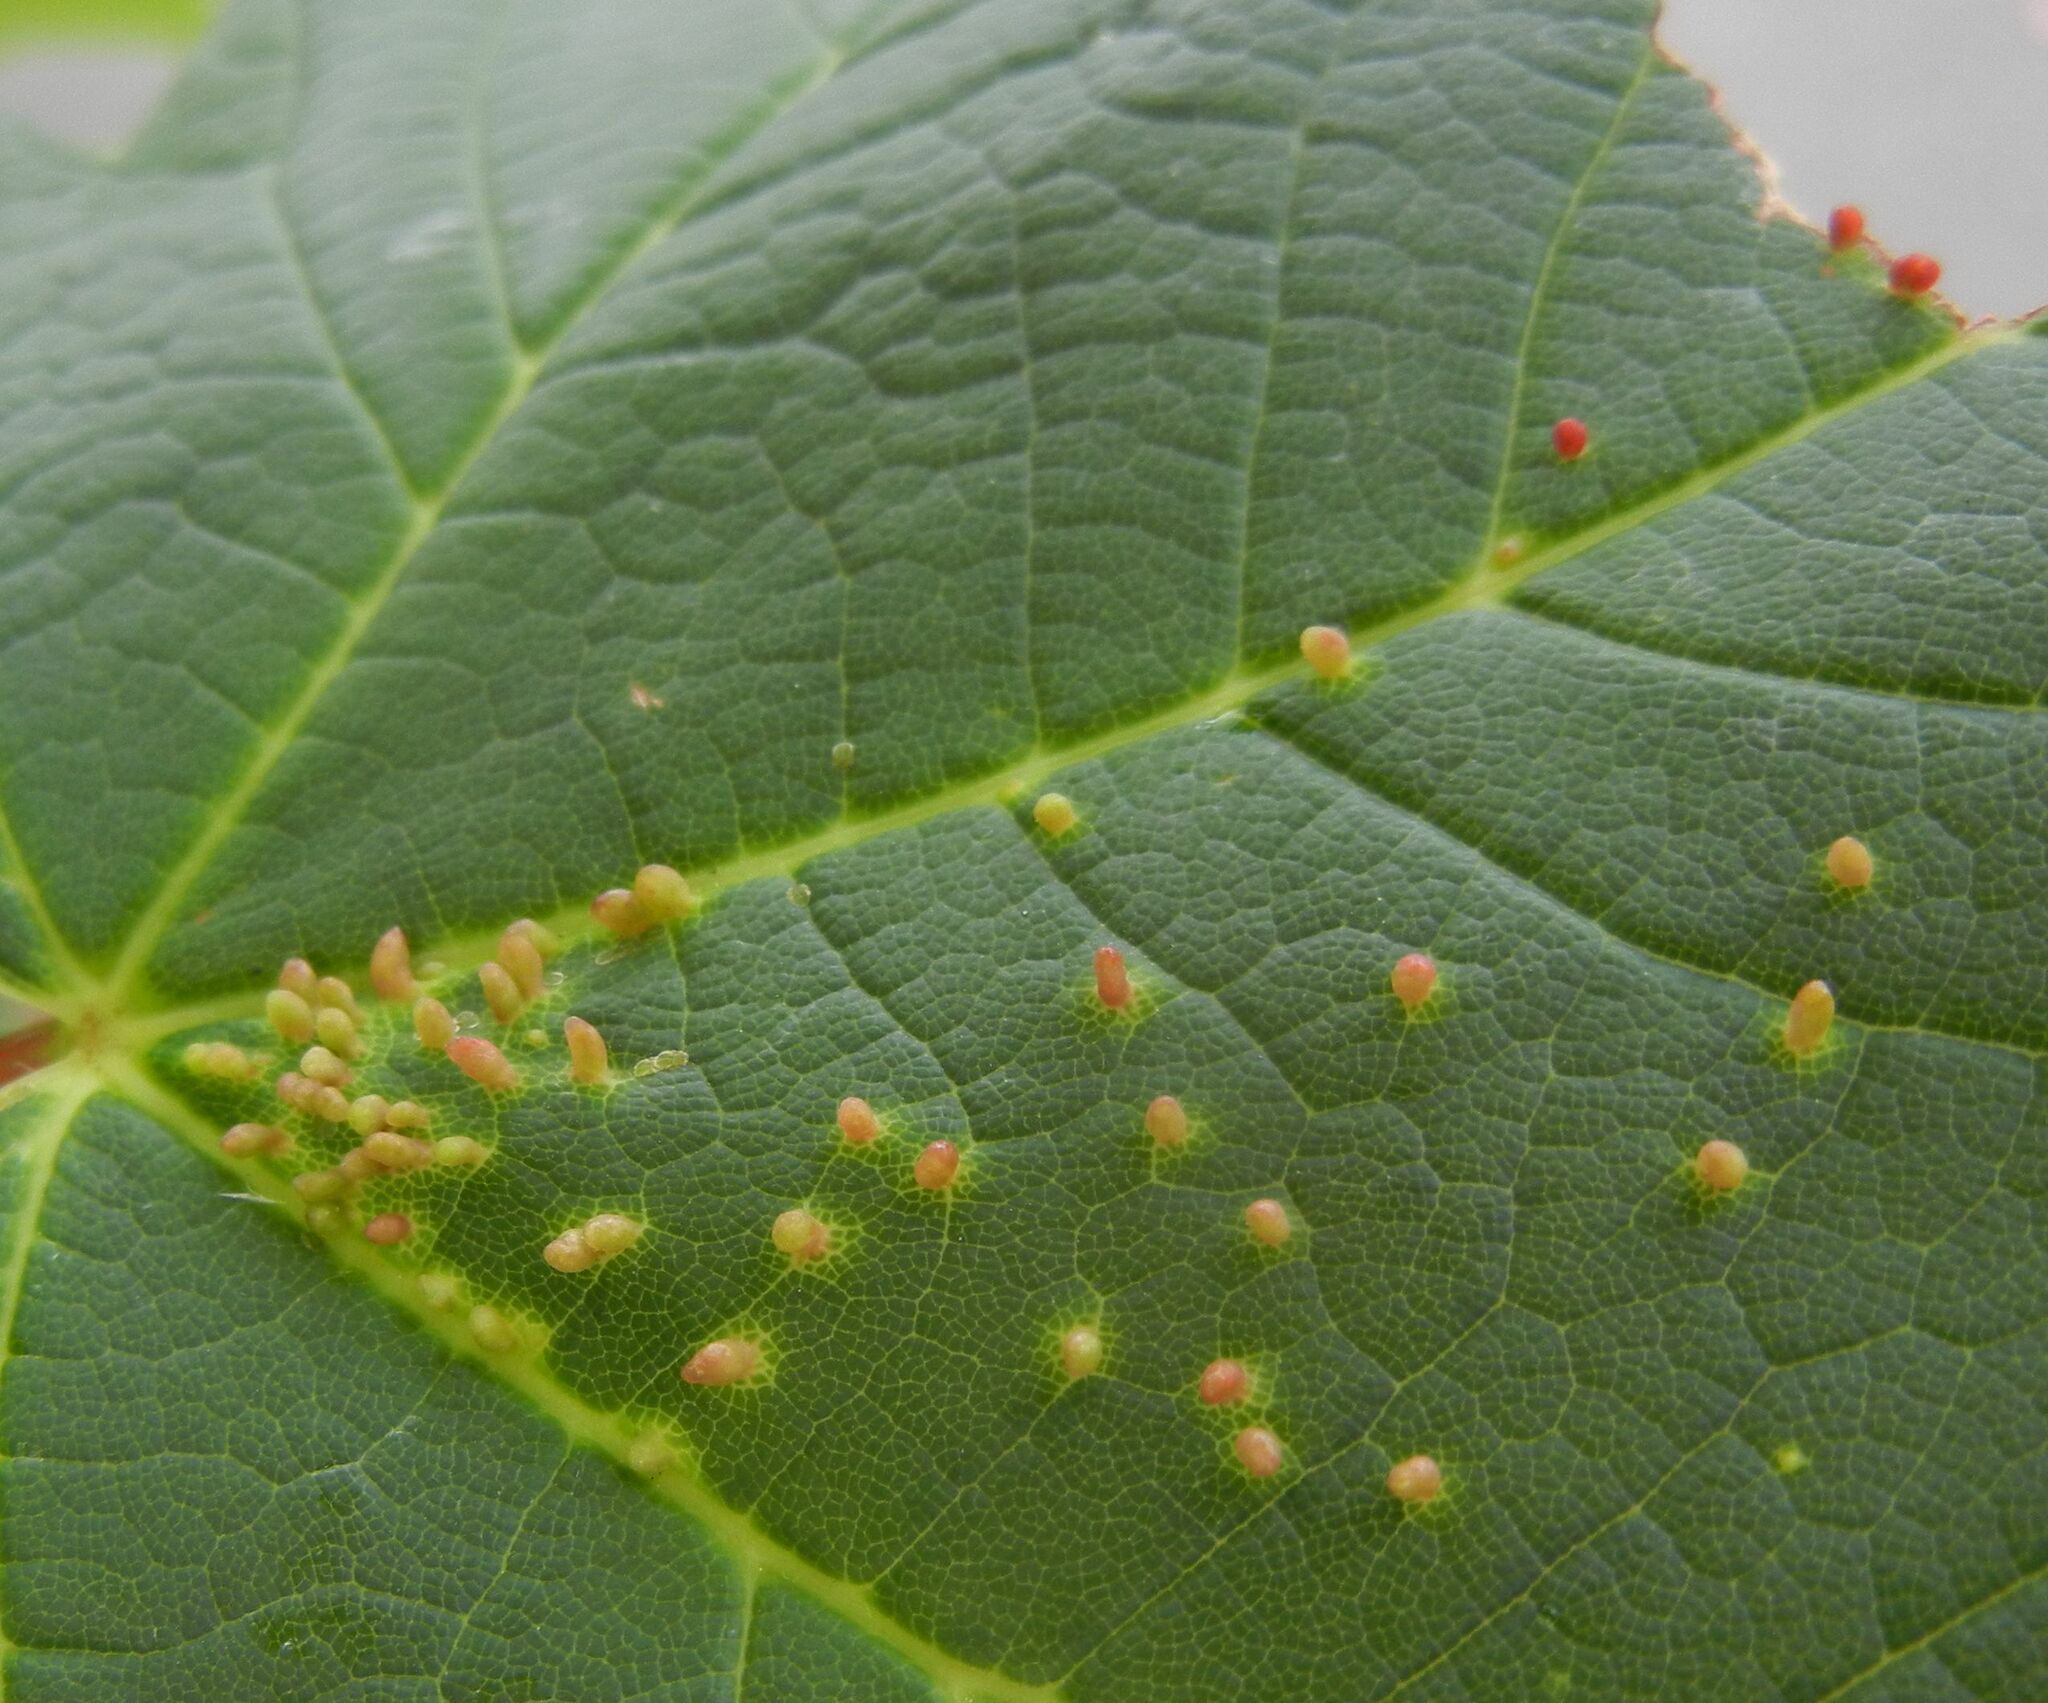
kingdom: Animalia
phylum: Arthropoda
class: Arachnida
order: Trombidiformes
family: Eriophyidae
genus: Aceria
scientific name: Aceria cephaloneus
